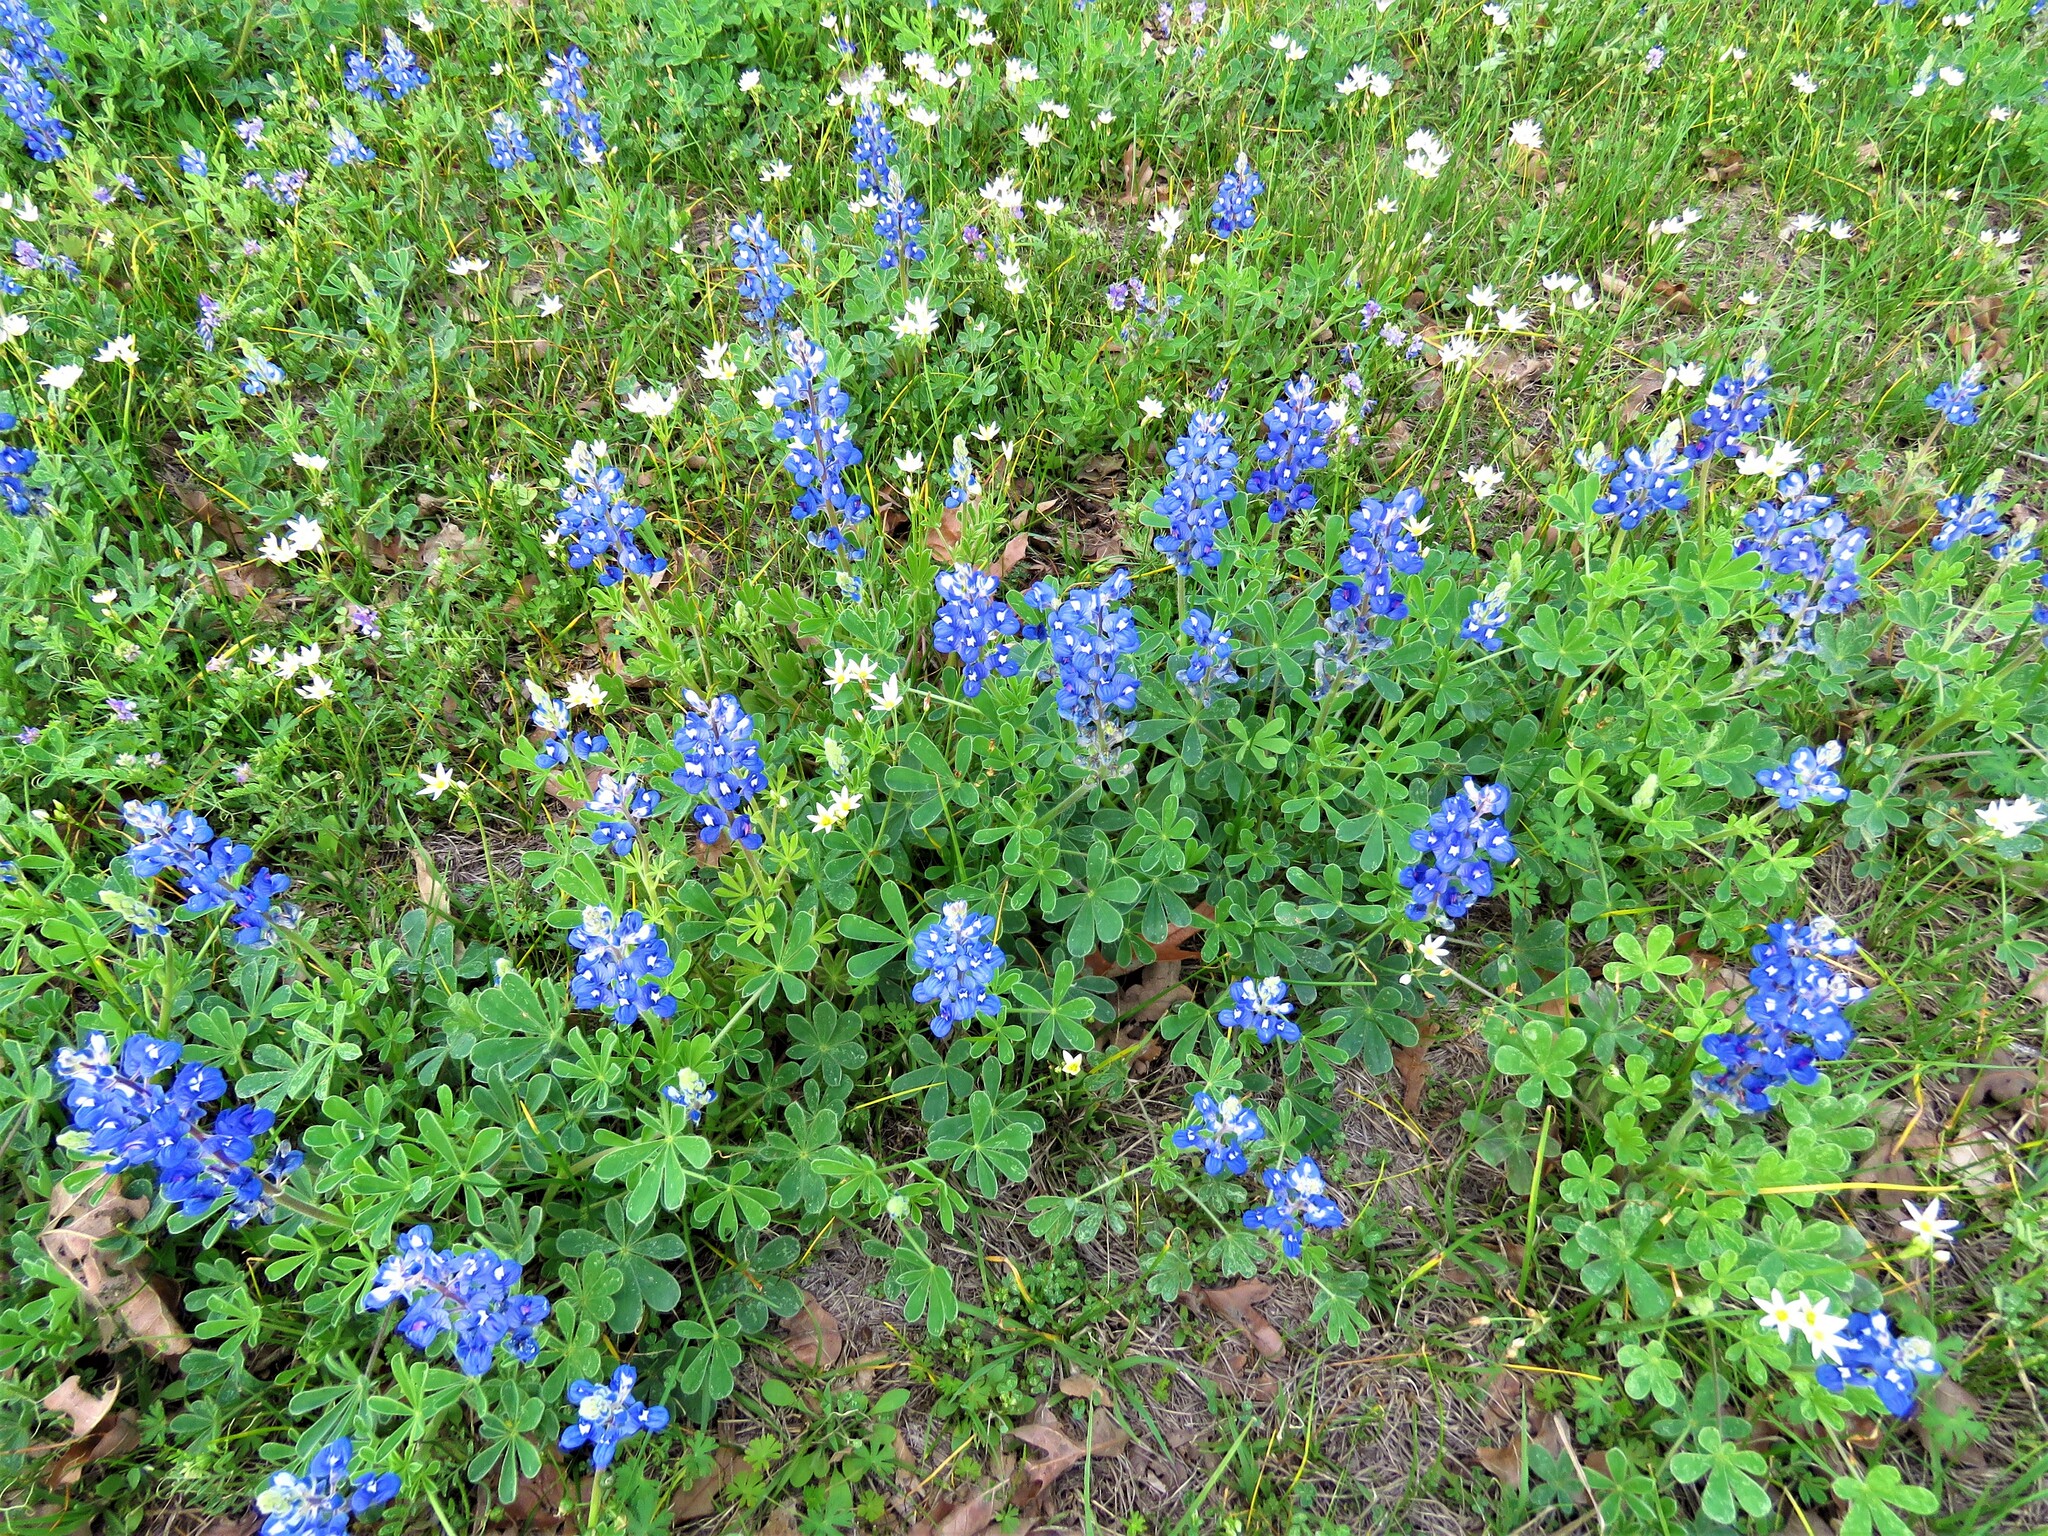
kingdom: Plantae
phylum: Tracheophyta
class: Magnoliopsida
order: Fabales
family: Fabaceae
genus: Lupinus
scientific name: Lupinus subcarnosus
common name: Texas bluebonnet
